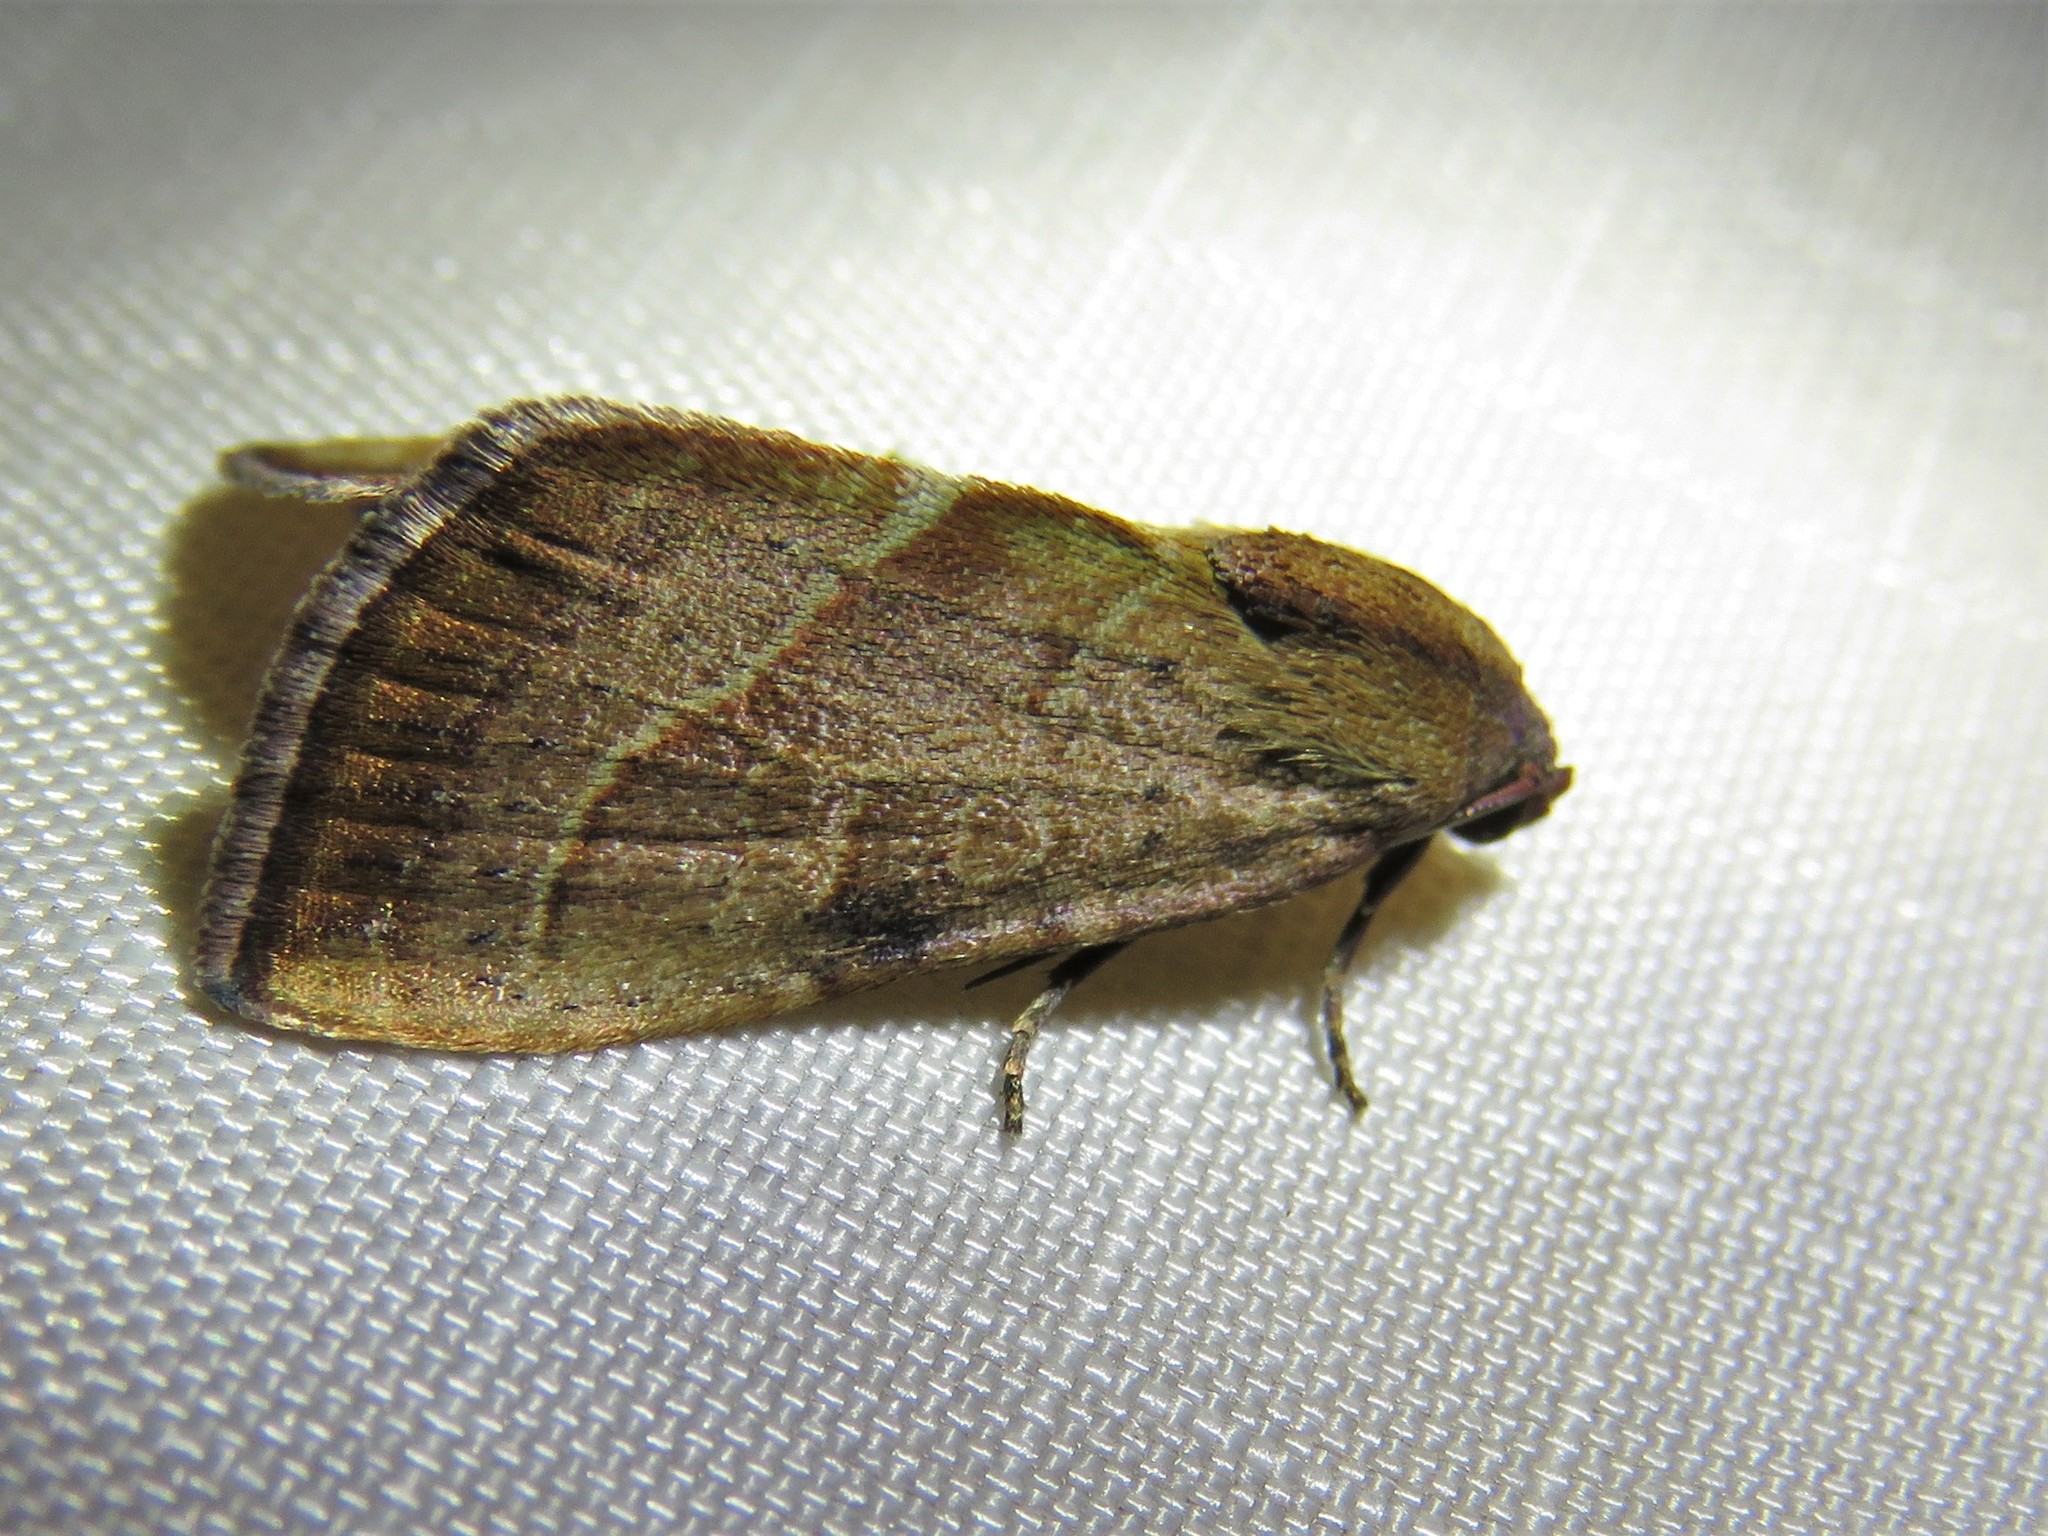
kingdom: Animalia
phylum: Arthropoda
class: Insecta
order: Lepidoptera
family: Noctuidae
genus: Galgula
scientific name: Galgula partita
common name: Wedgeling
